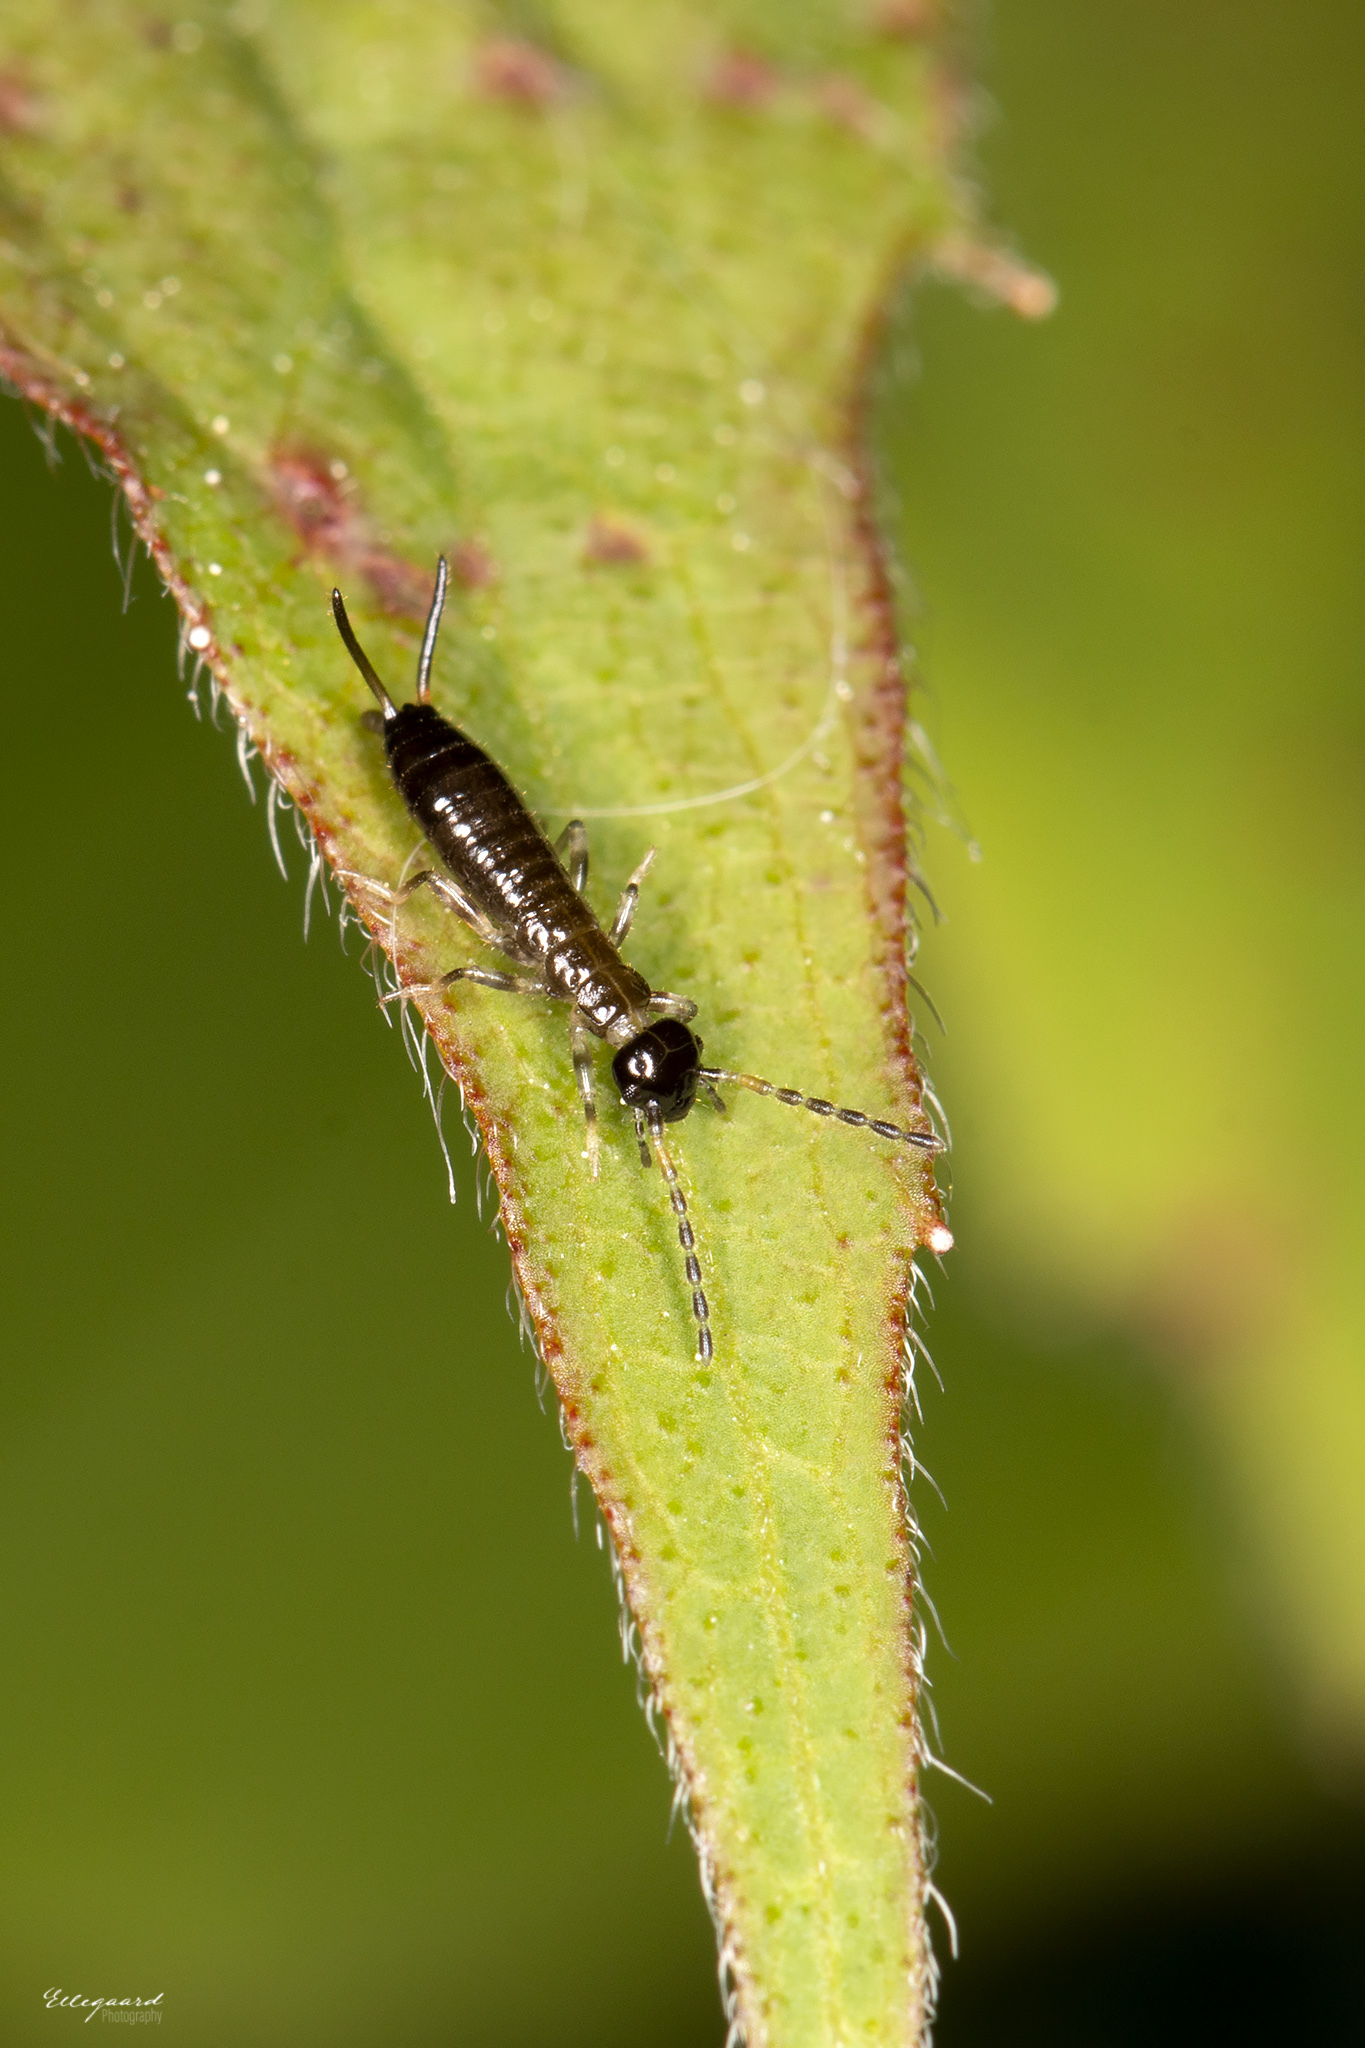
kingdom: Animalia
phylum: Arthropoda
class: Insecta
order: Dermaptera
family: Forficulidae
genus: Apterygida
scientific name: Apterygida albipennis
